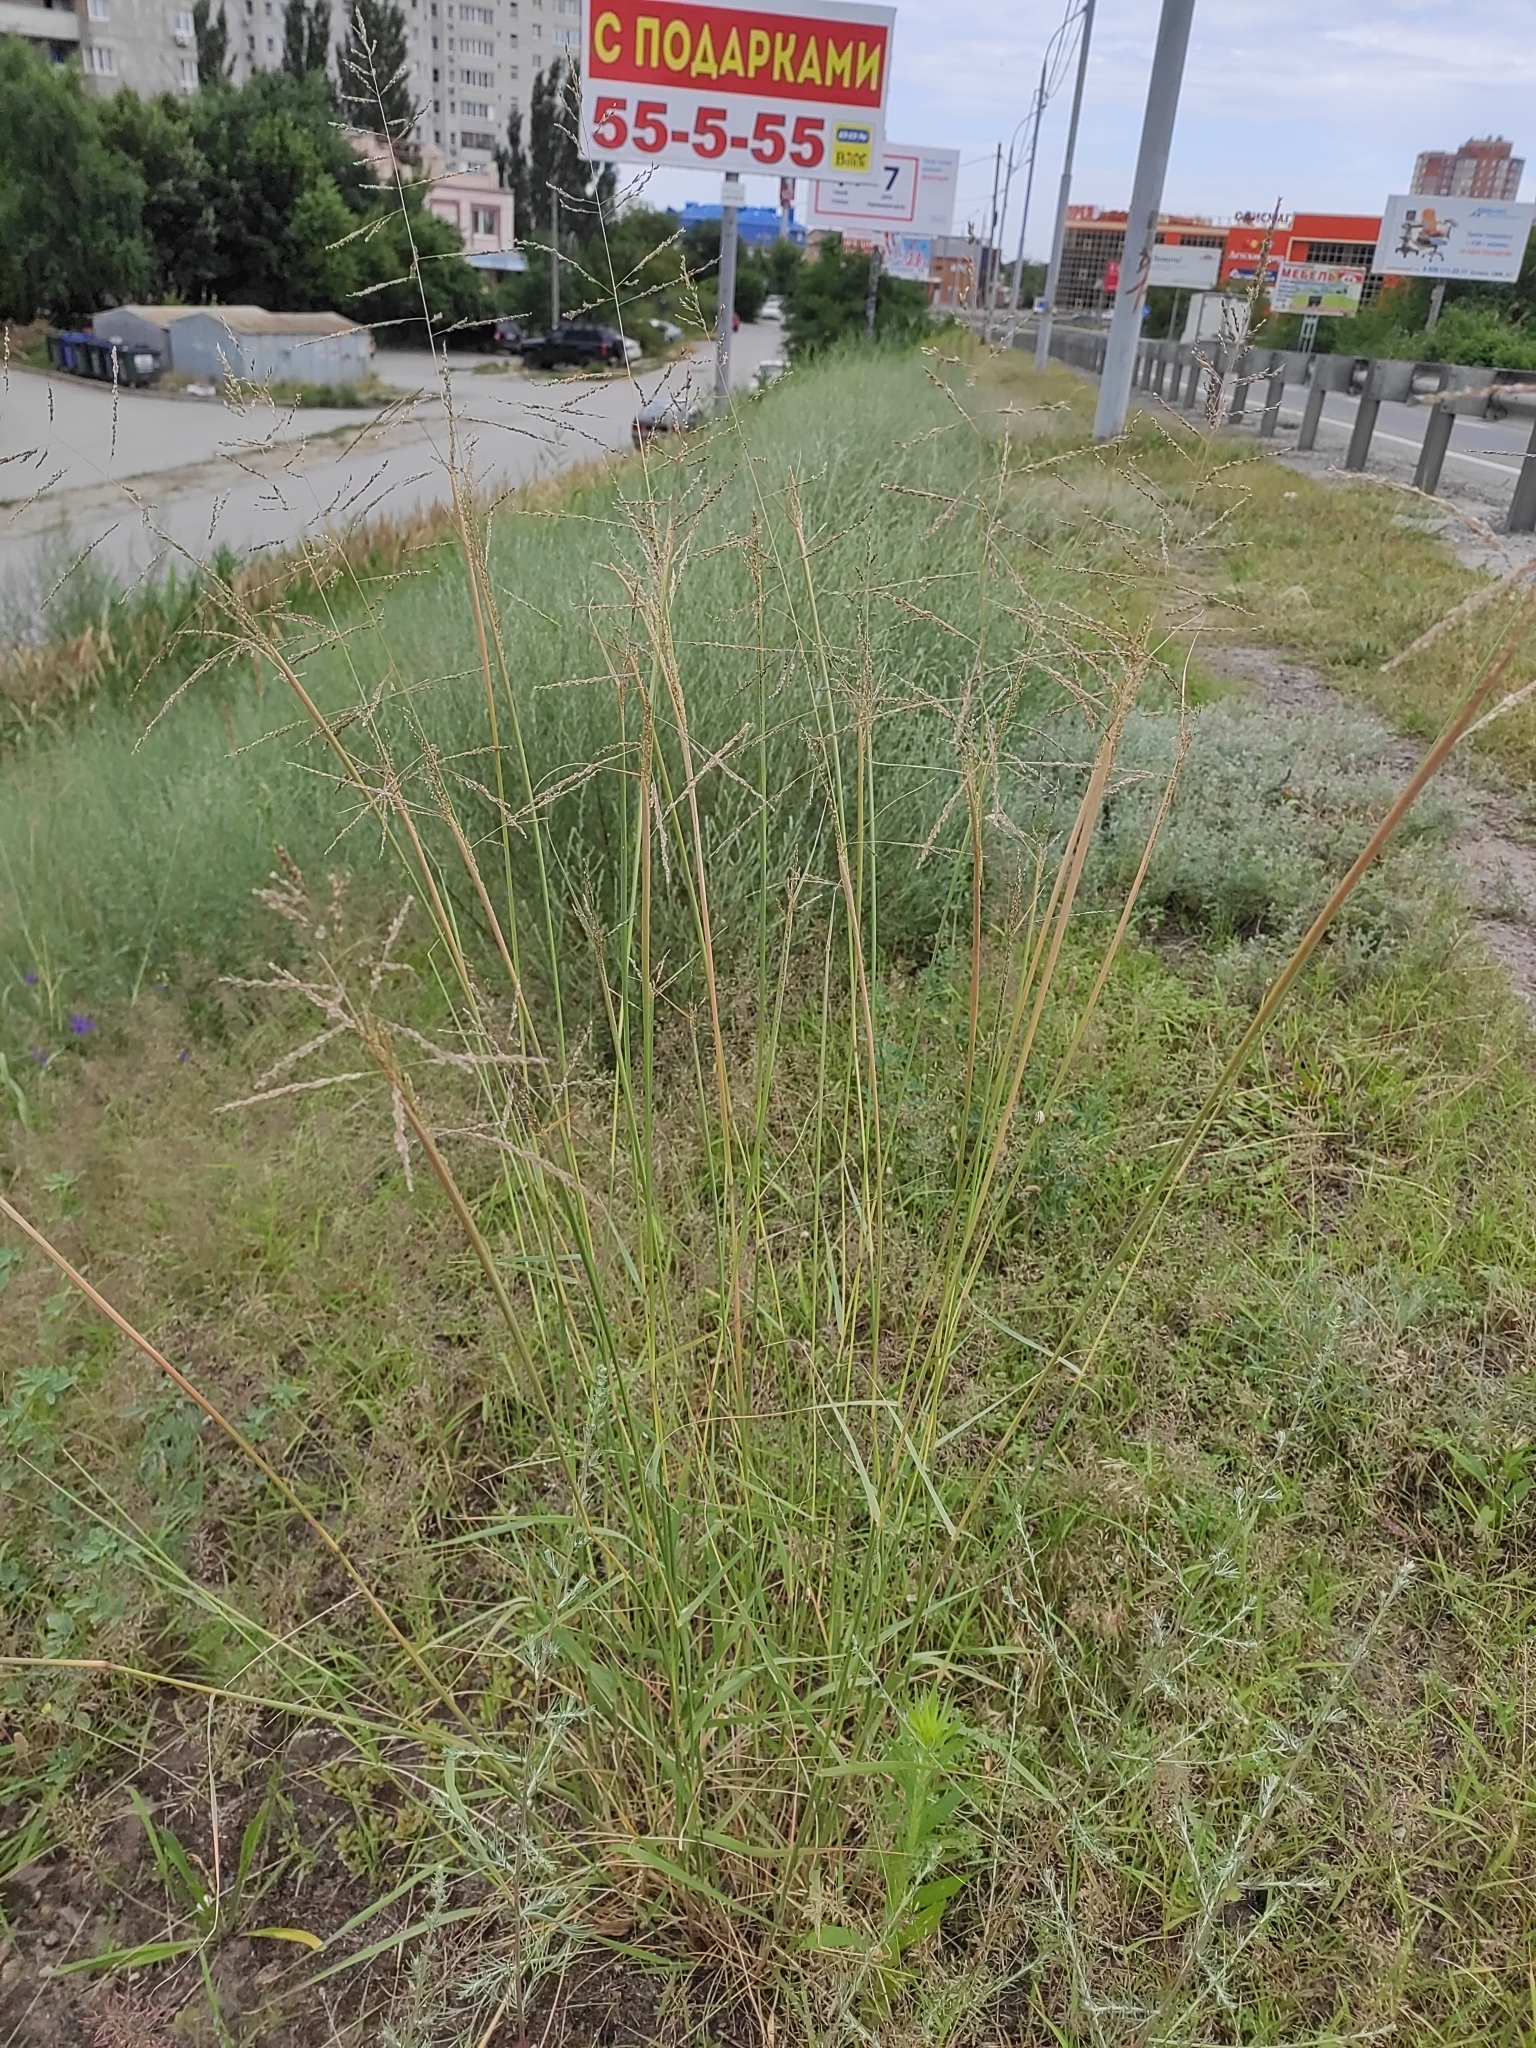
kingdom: Plantae
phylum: Tracheophyta
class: Liliopsida
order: Poales
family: Poaceae
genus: Sporobolus
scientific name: Sporobolus cryptandrus
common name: Sand dropseed
